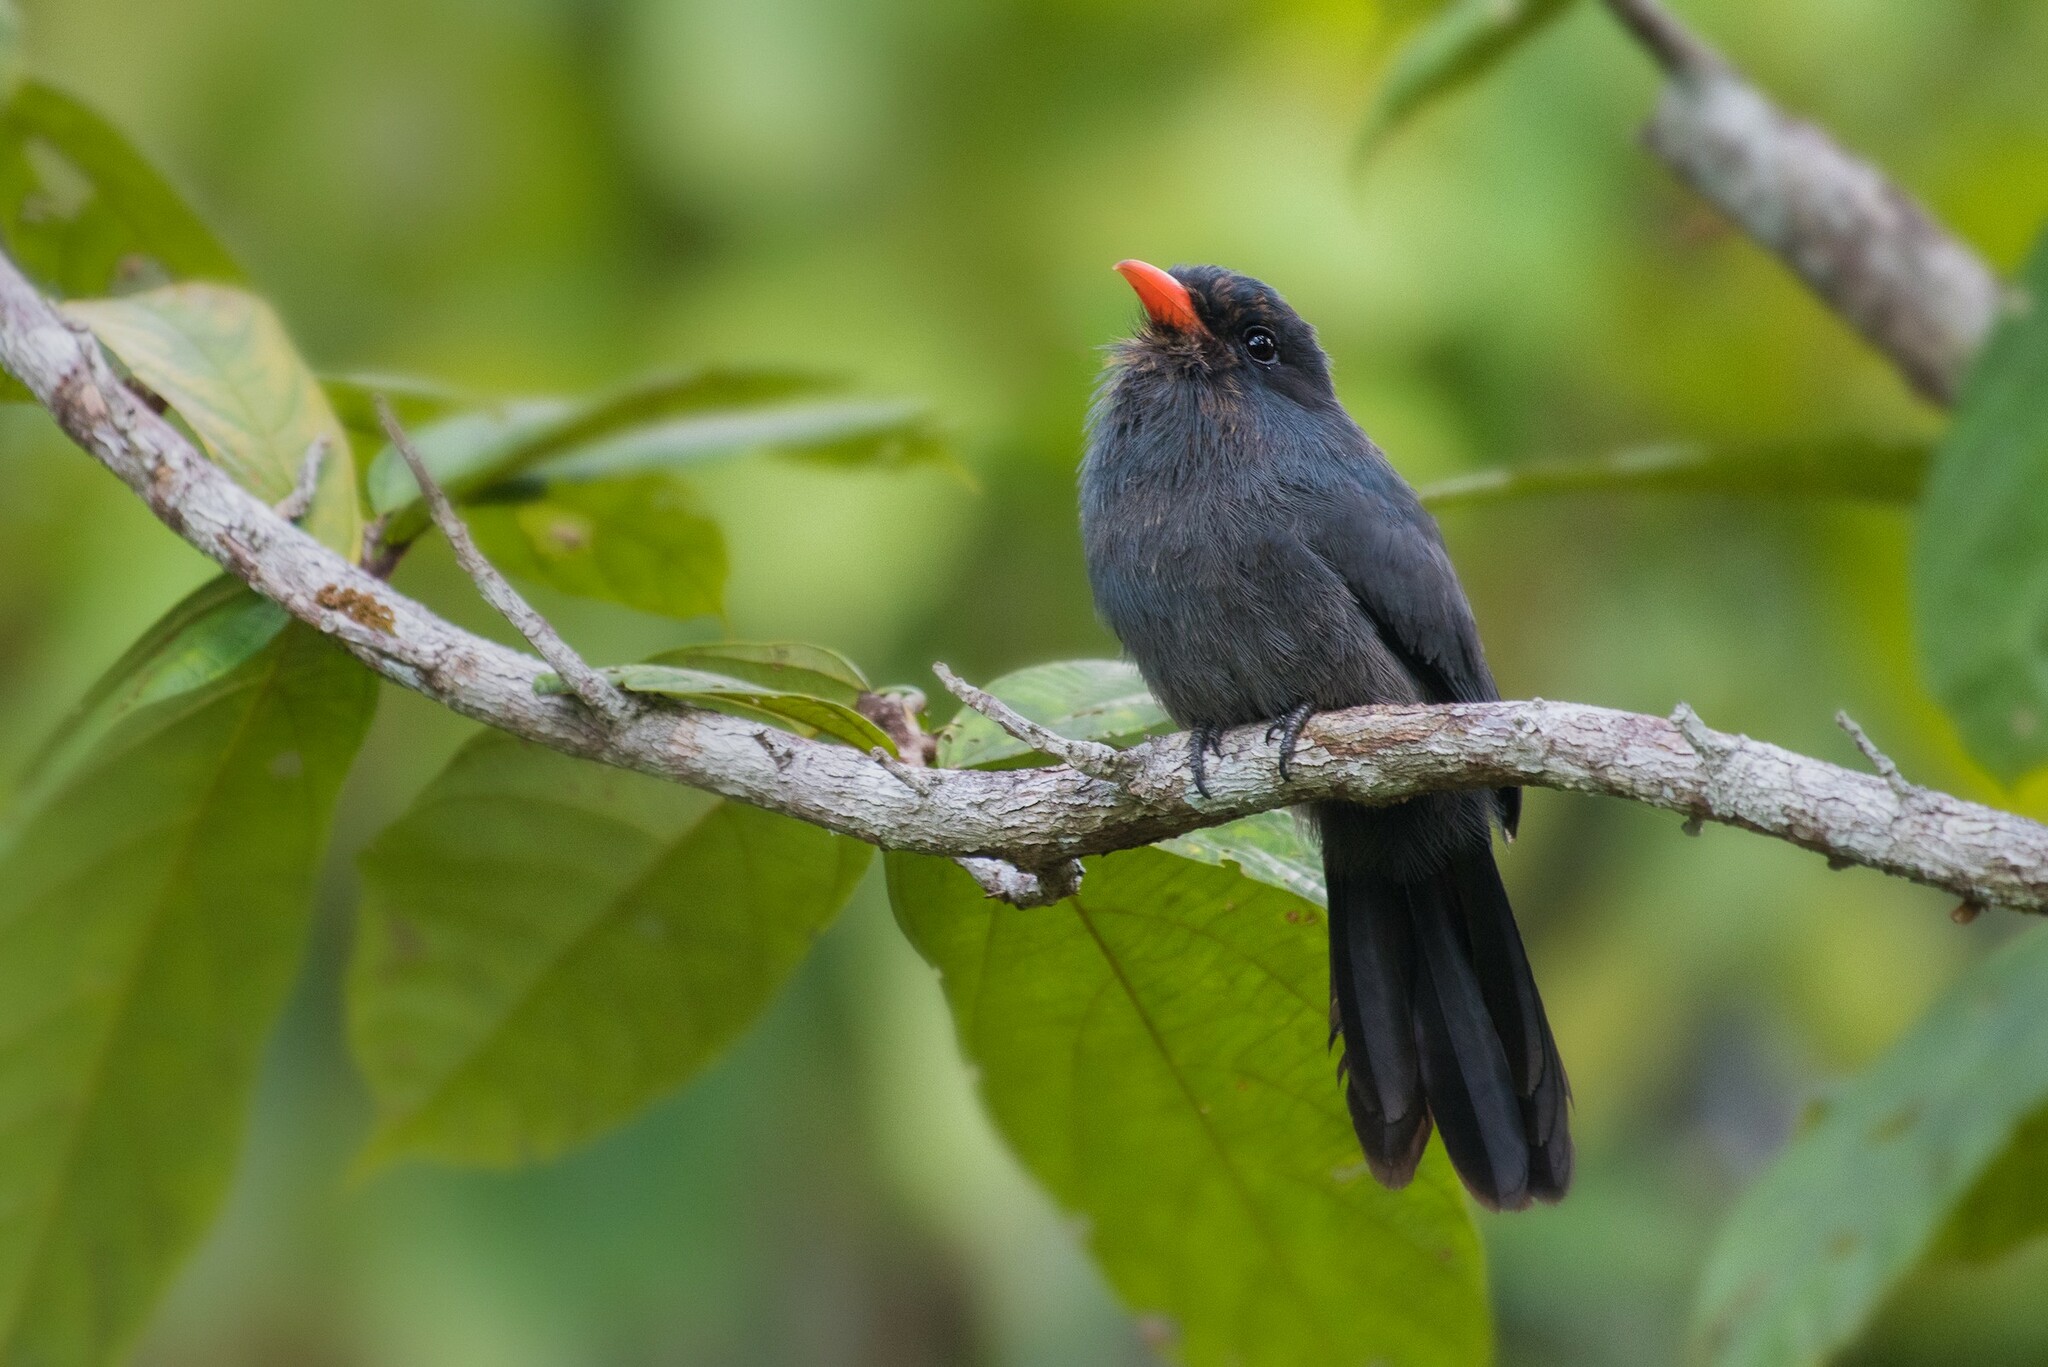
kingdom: Animalia
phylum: Chordata
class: Aves
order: Piciformes
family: Bucconidae
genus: Monasa
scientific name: Monasa nigrifrons
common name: Black-fronted nunbird
